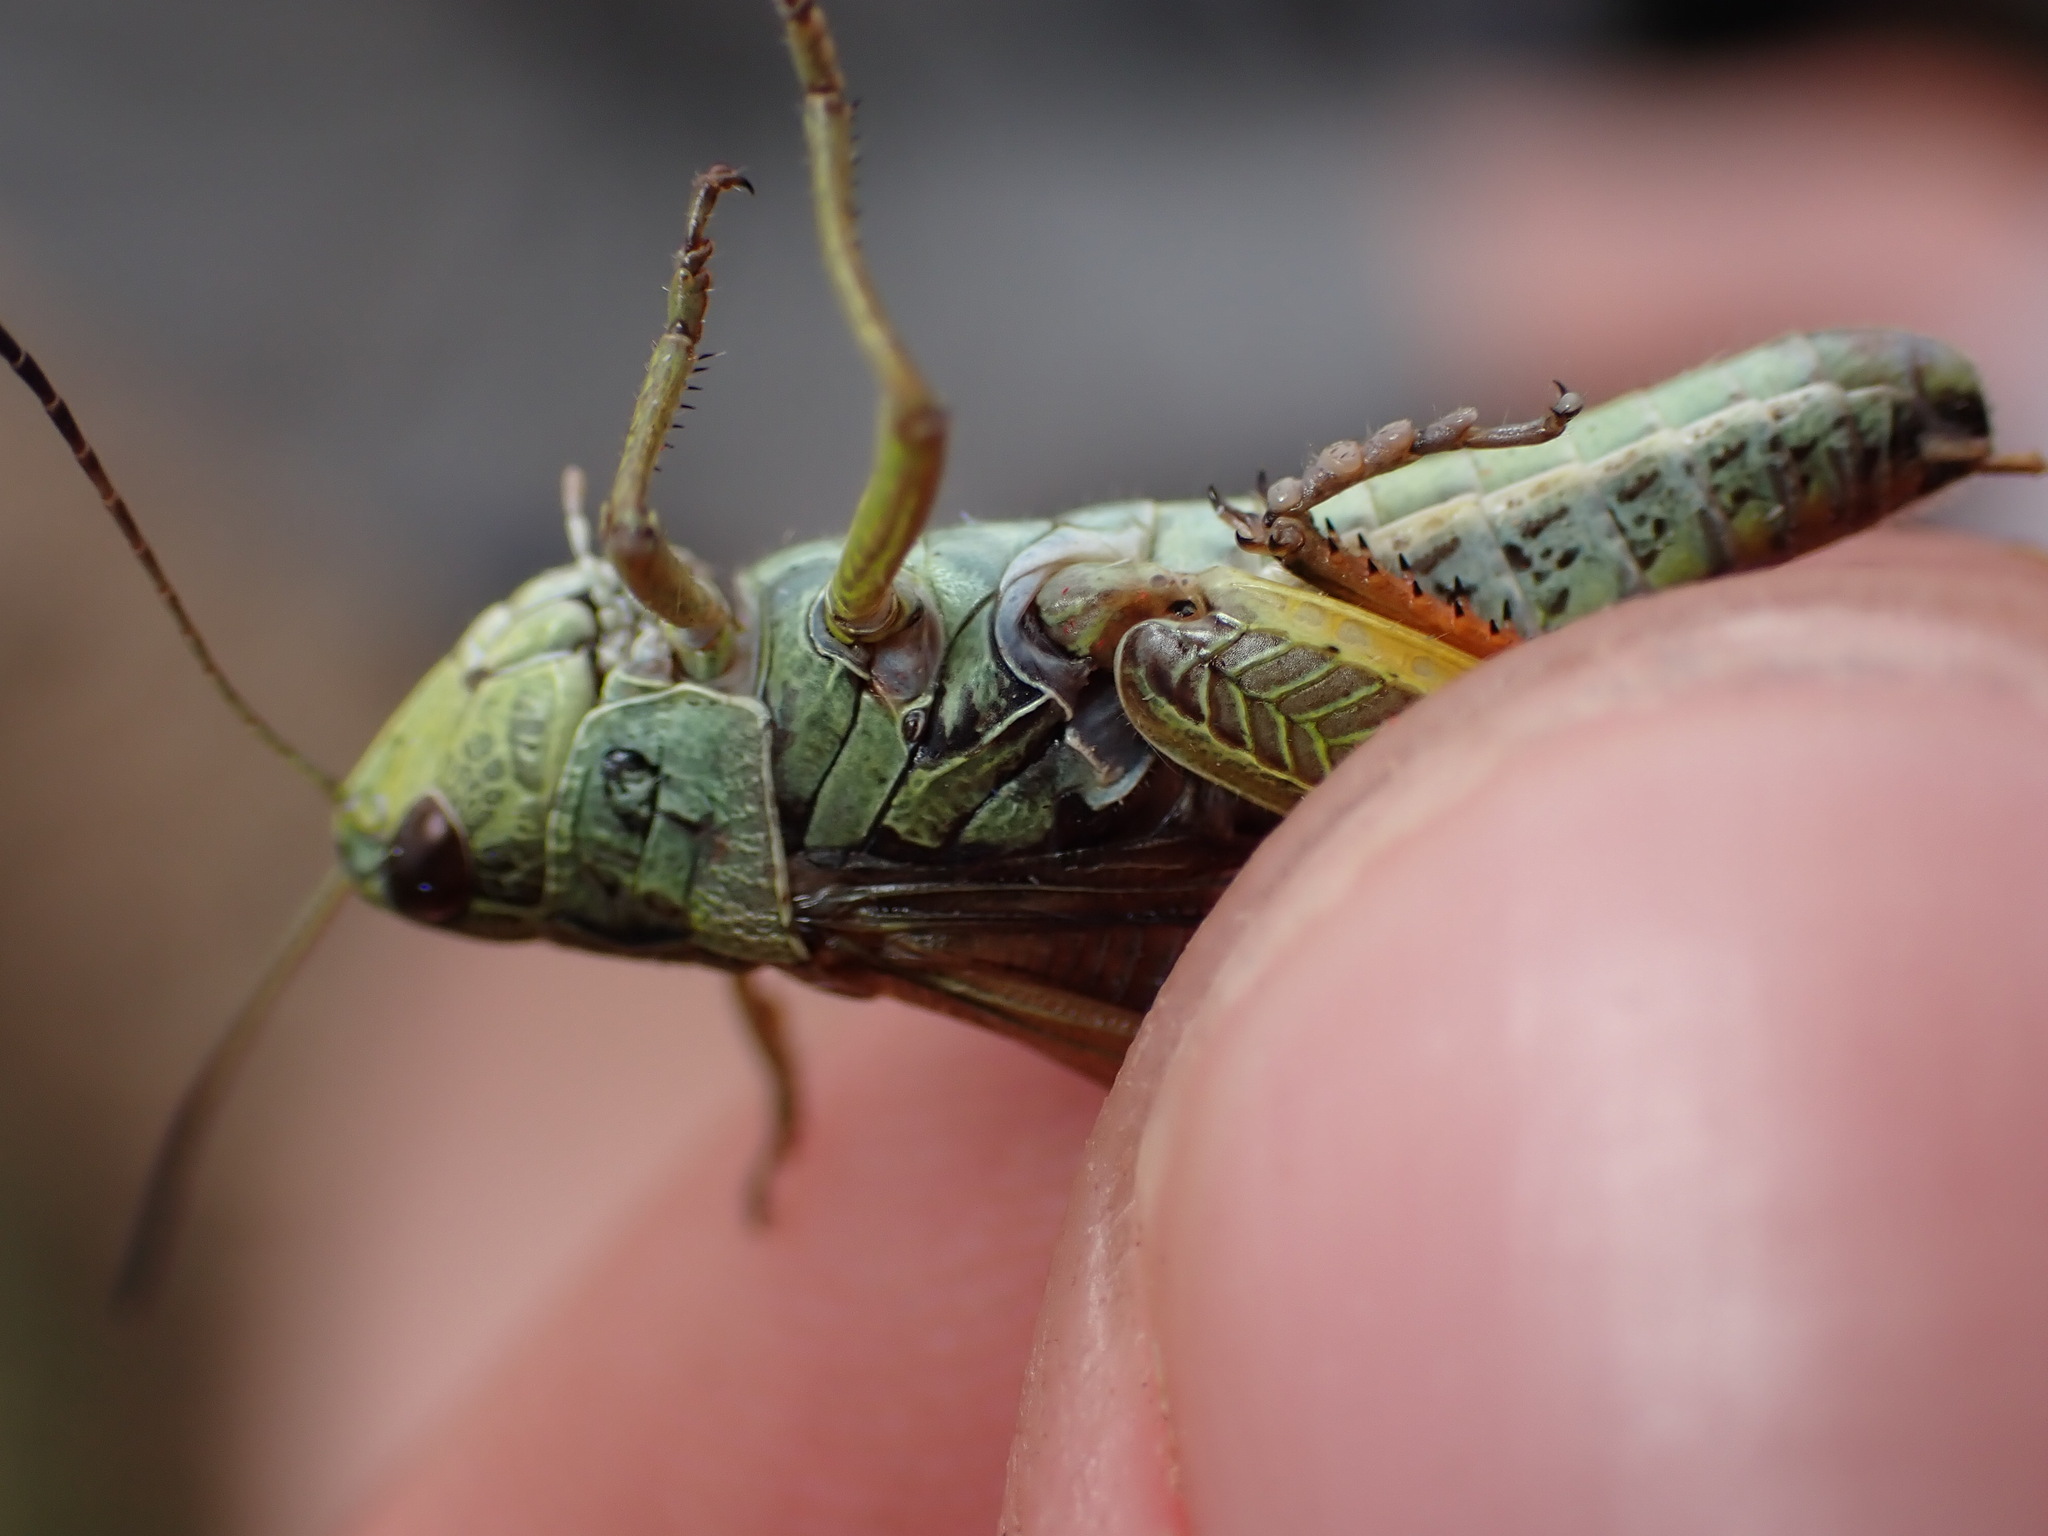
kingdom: Animalia
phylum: Arthropoda
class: Insecta
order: Orthoptera
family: Acrididae
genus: Stauroderus
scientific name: Stauroderus scalaris
